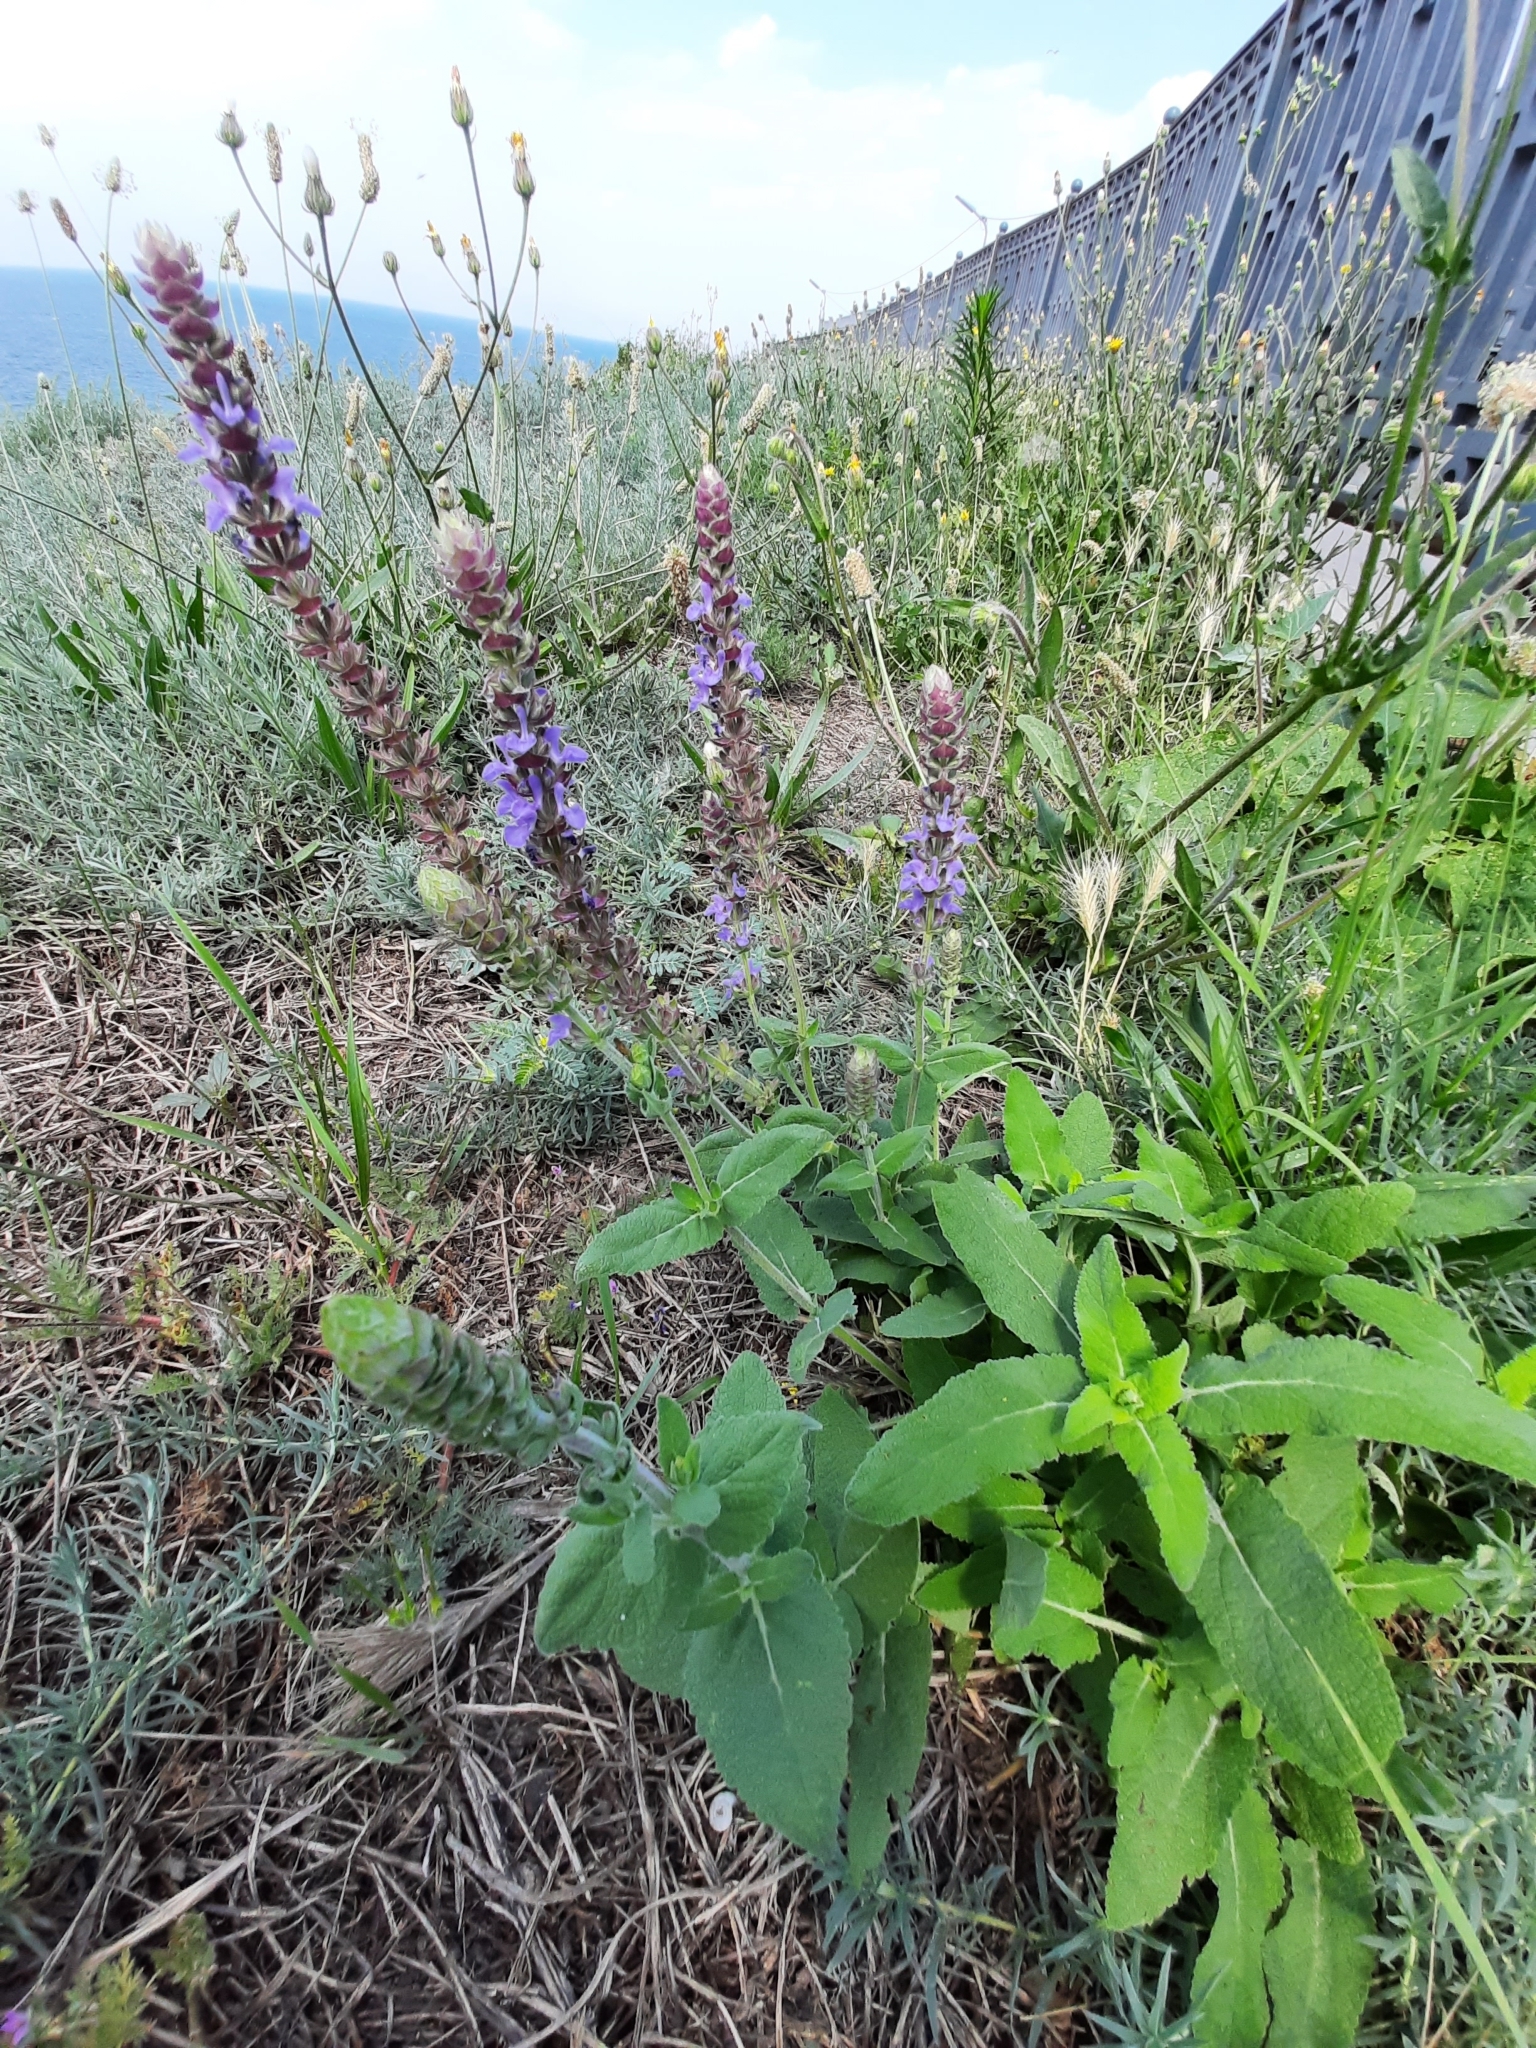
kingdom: Plantae
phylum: Tracheophyta
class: Magnoliopsida
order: Lamiales
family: Lamiaceae
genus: Salvia
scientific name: Salvia nemorosa
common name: Balkan clary
